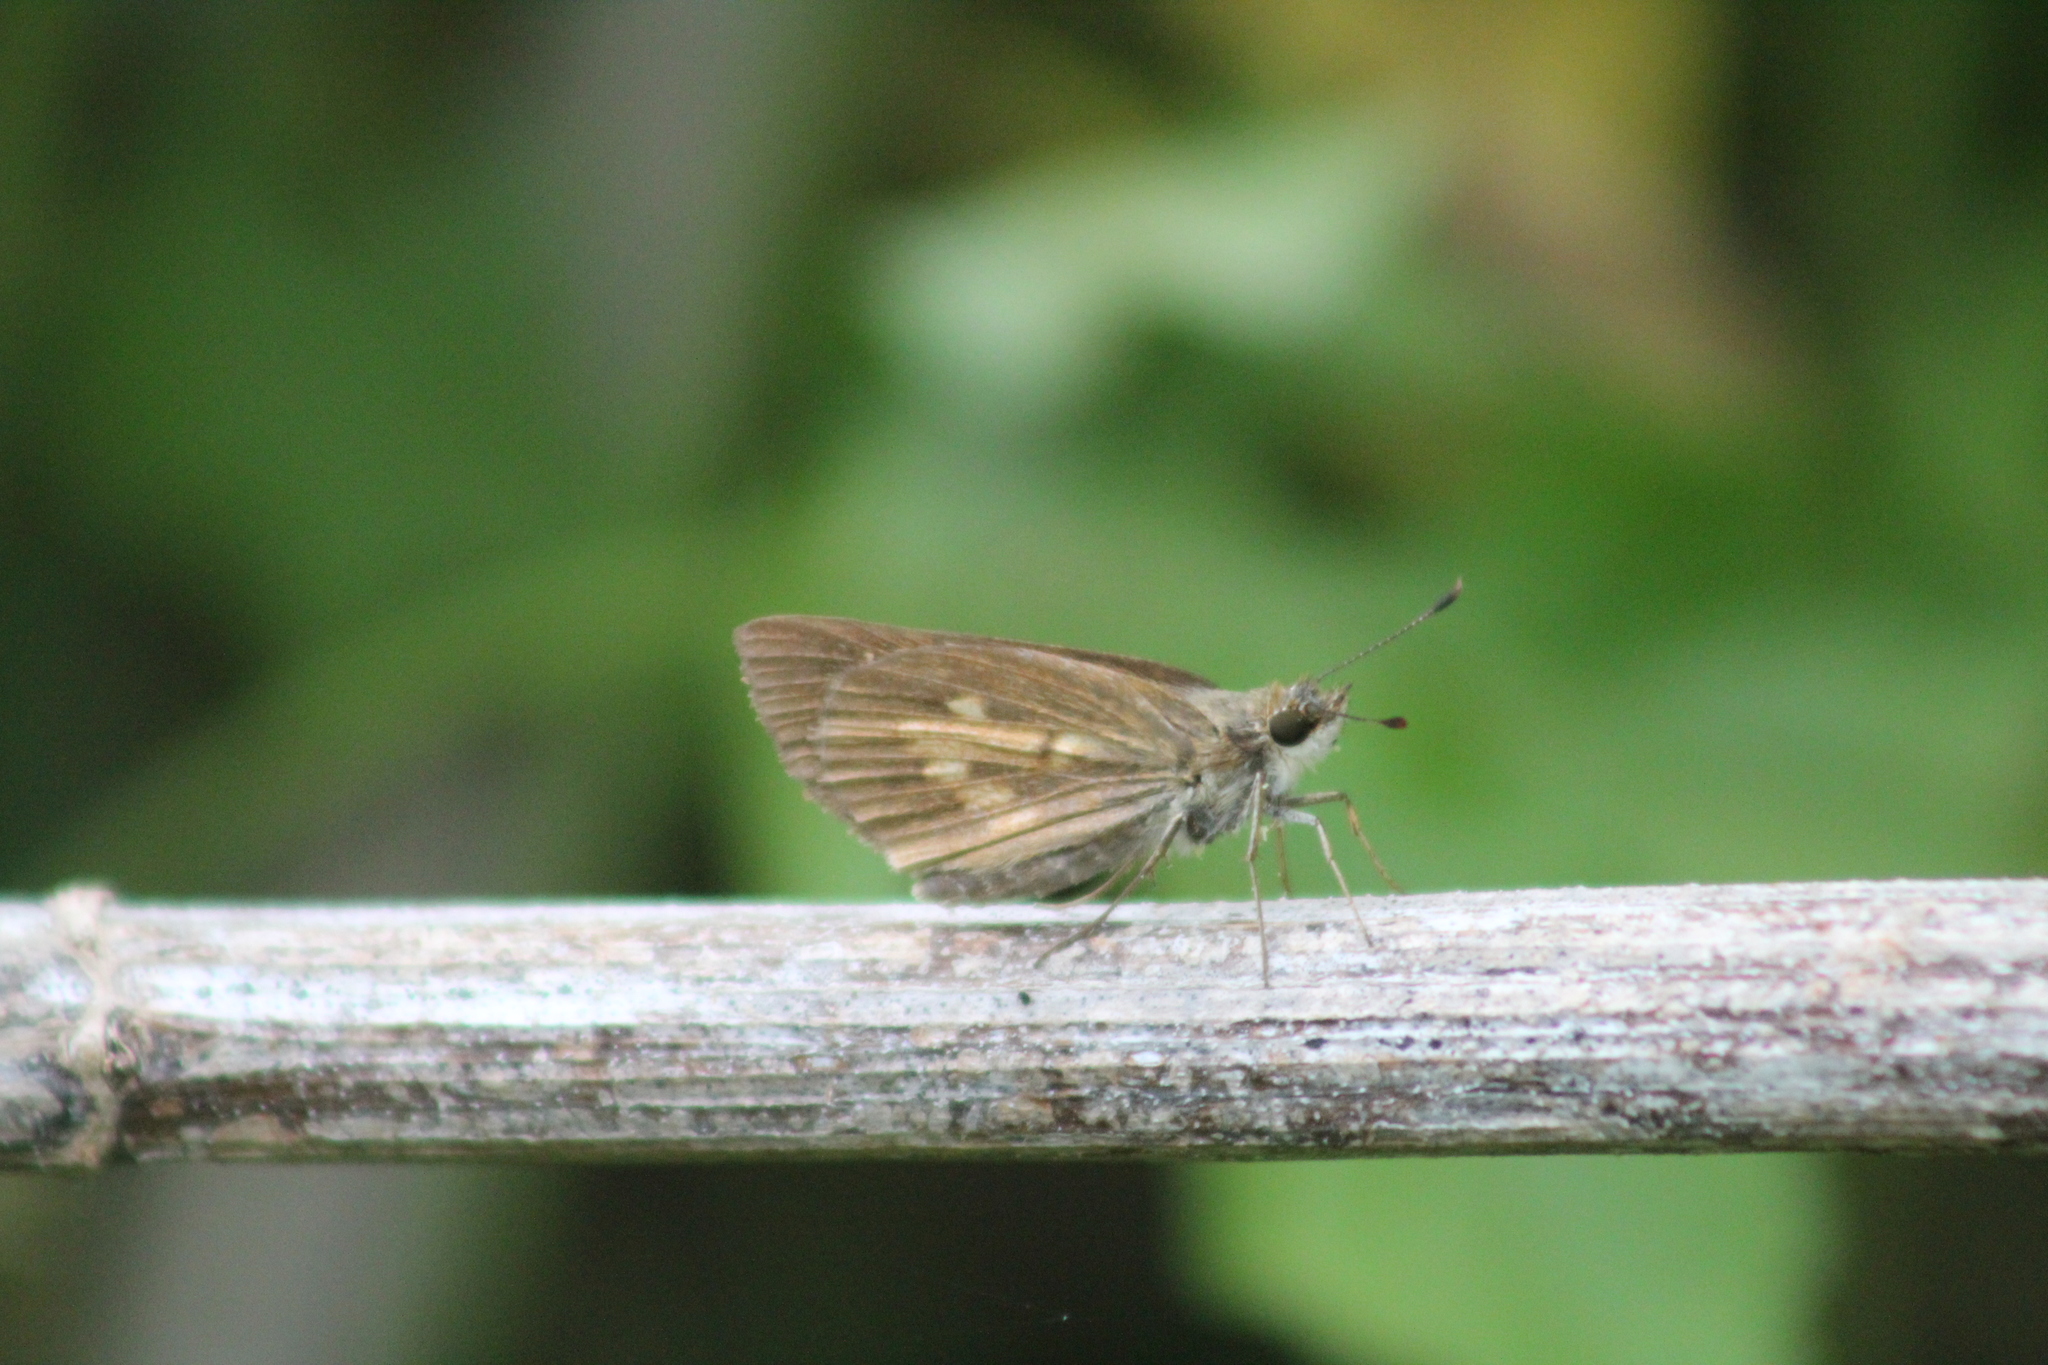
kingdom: Animalia
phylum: Arthropoda
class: Insecta
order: Lepidoptera
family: Hesperiidae
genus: Poanes
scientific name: Poanes viator
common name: Broad-winged skipper
